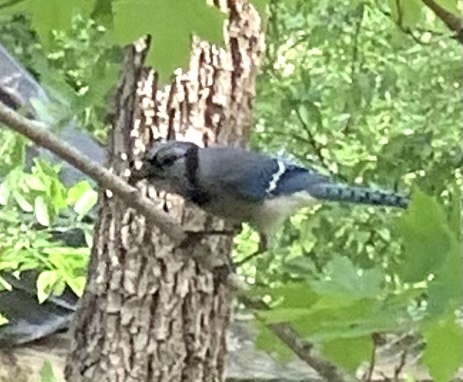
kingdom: Animalia
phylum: Chordata
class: Aves
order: Passeriformes
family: Corvidae
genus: Cyanocitta
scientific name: Cyanocitta cristata
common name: Blue jay
